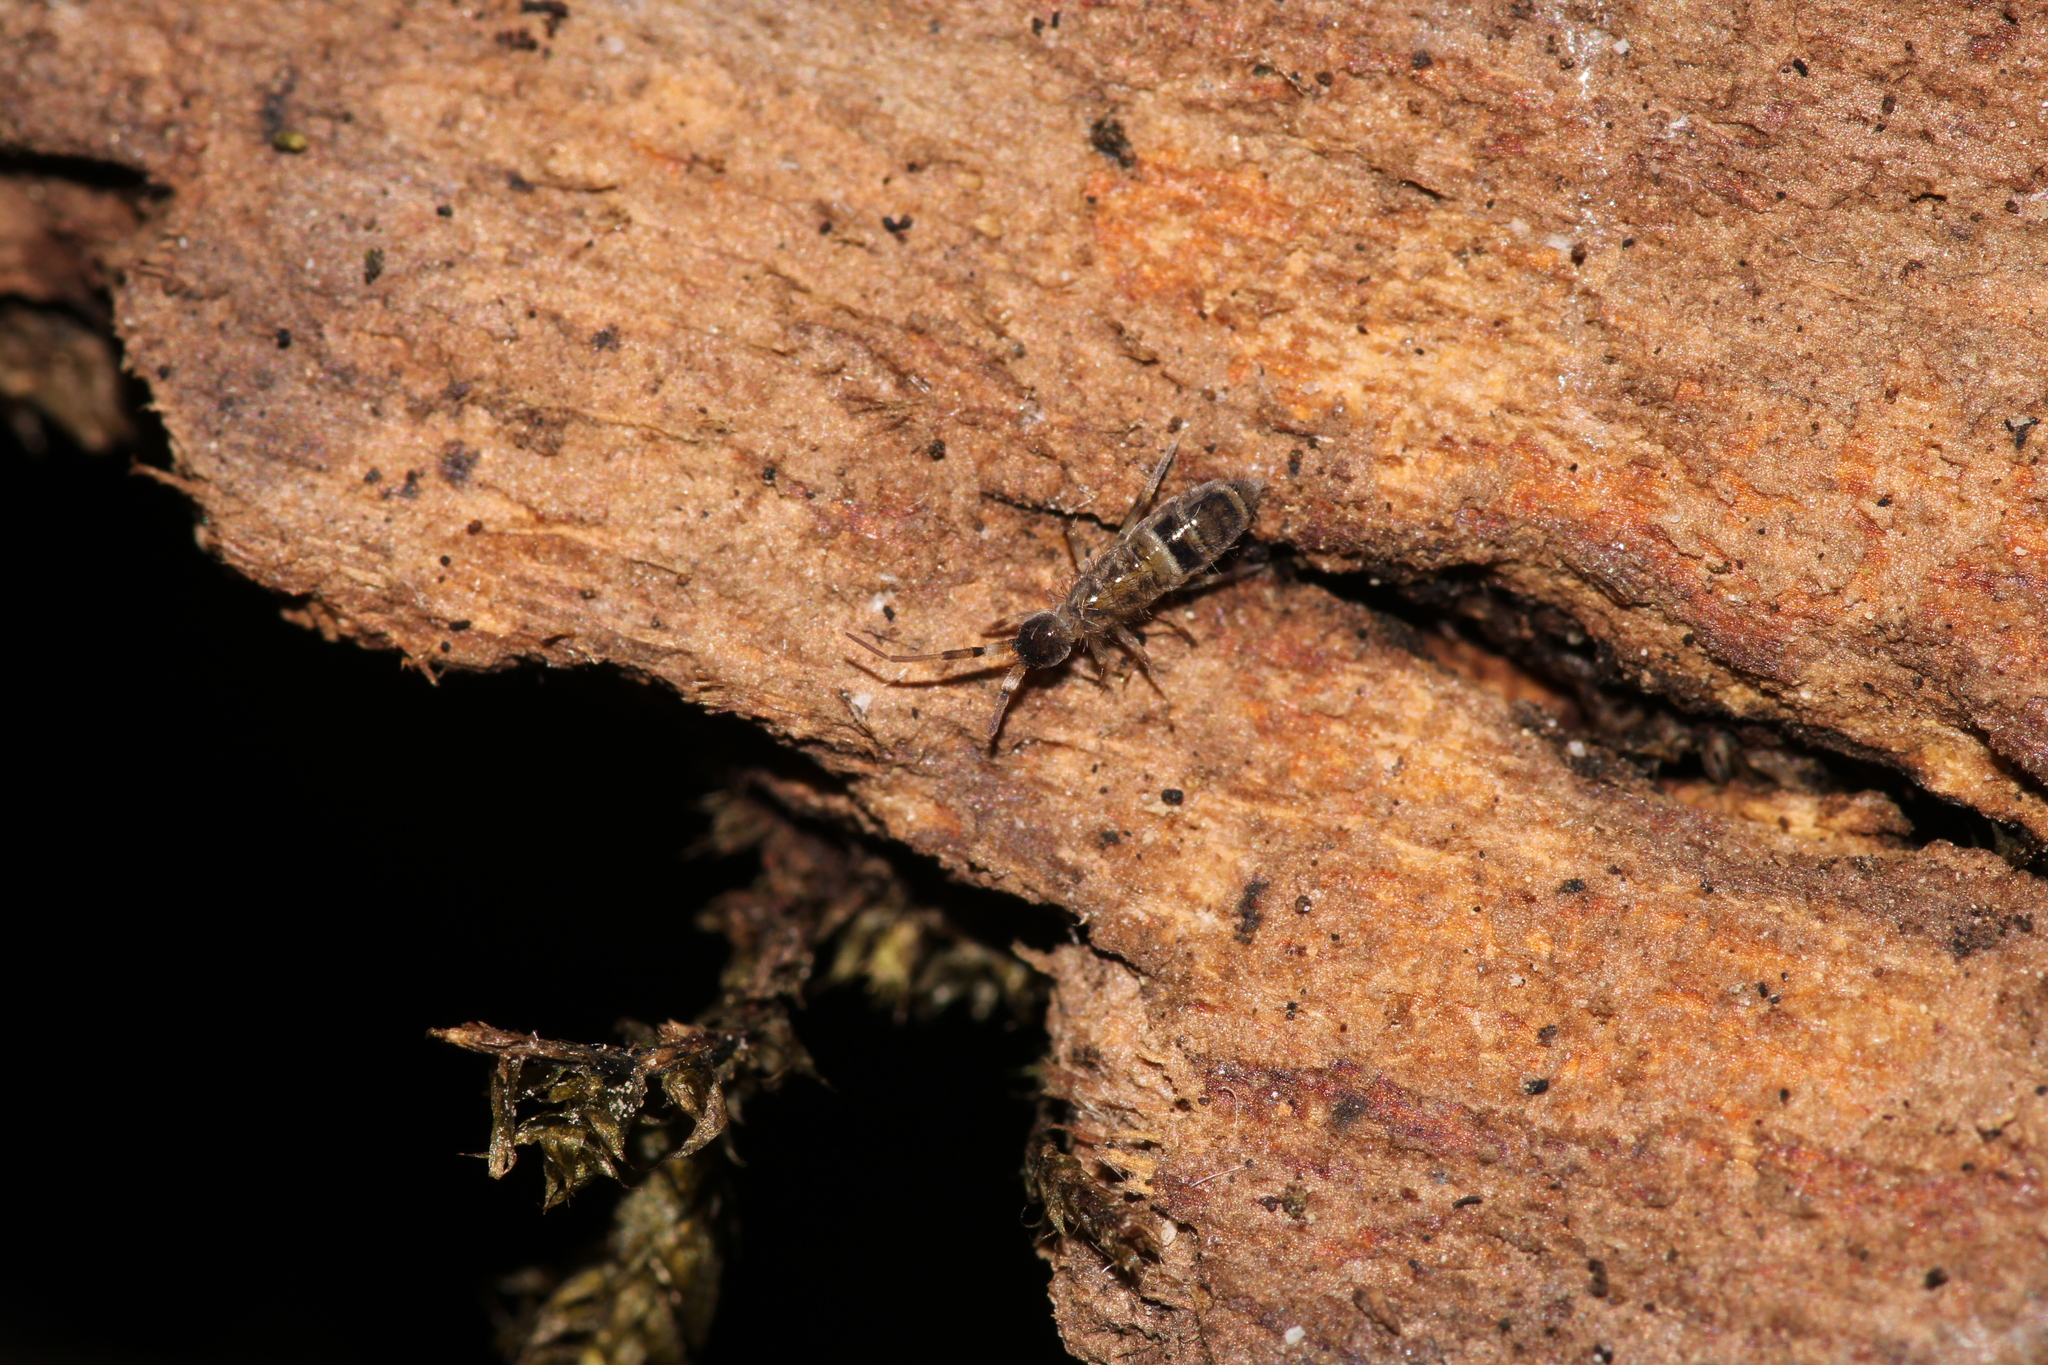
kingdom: Animalia
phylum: Arthropoda
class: Collembola
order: Entomobryomorpha
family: Orchesellidae
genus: Orchesella
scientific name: Orchesella cincta
